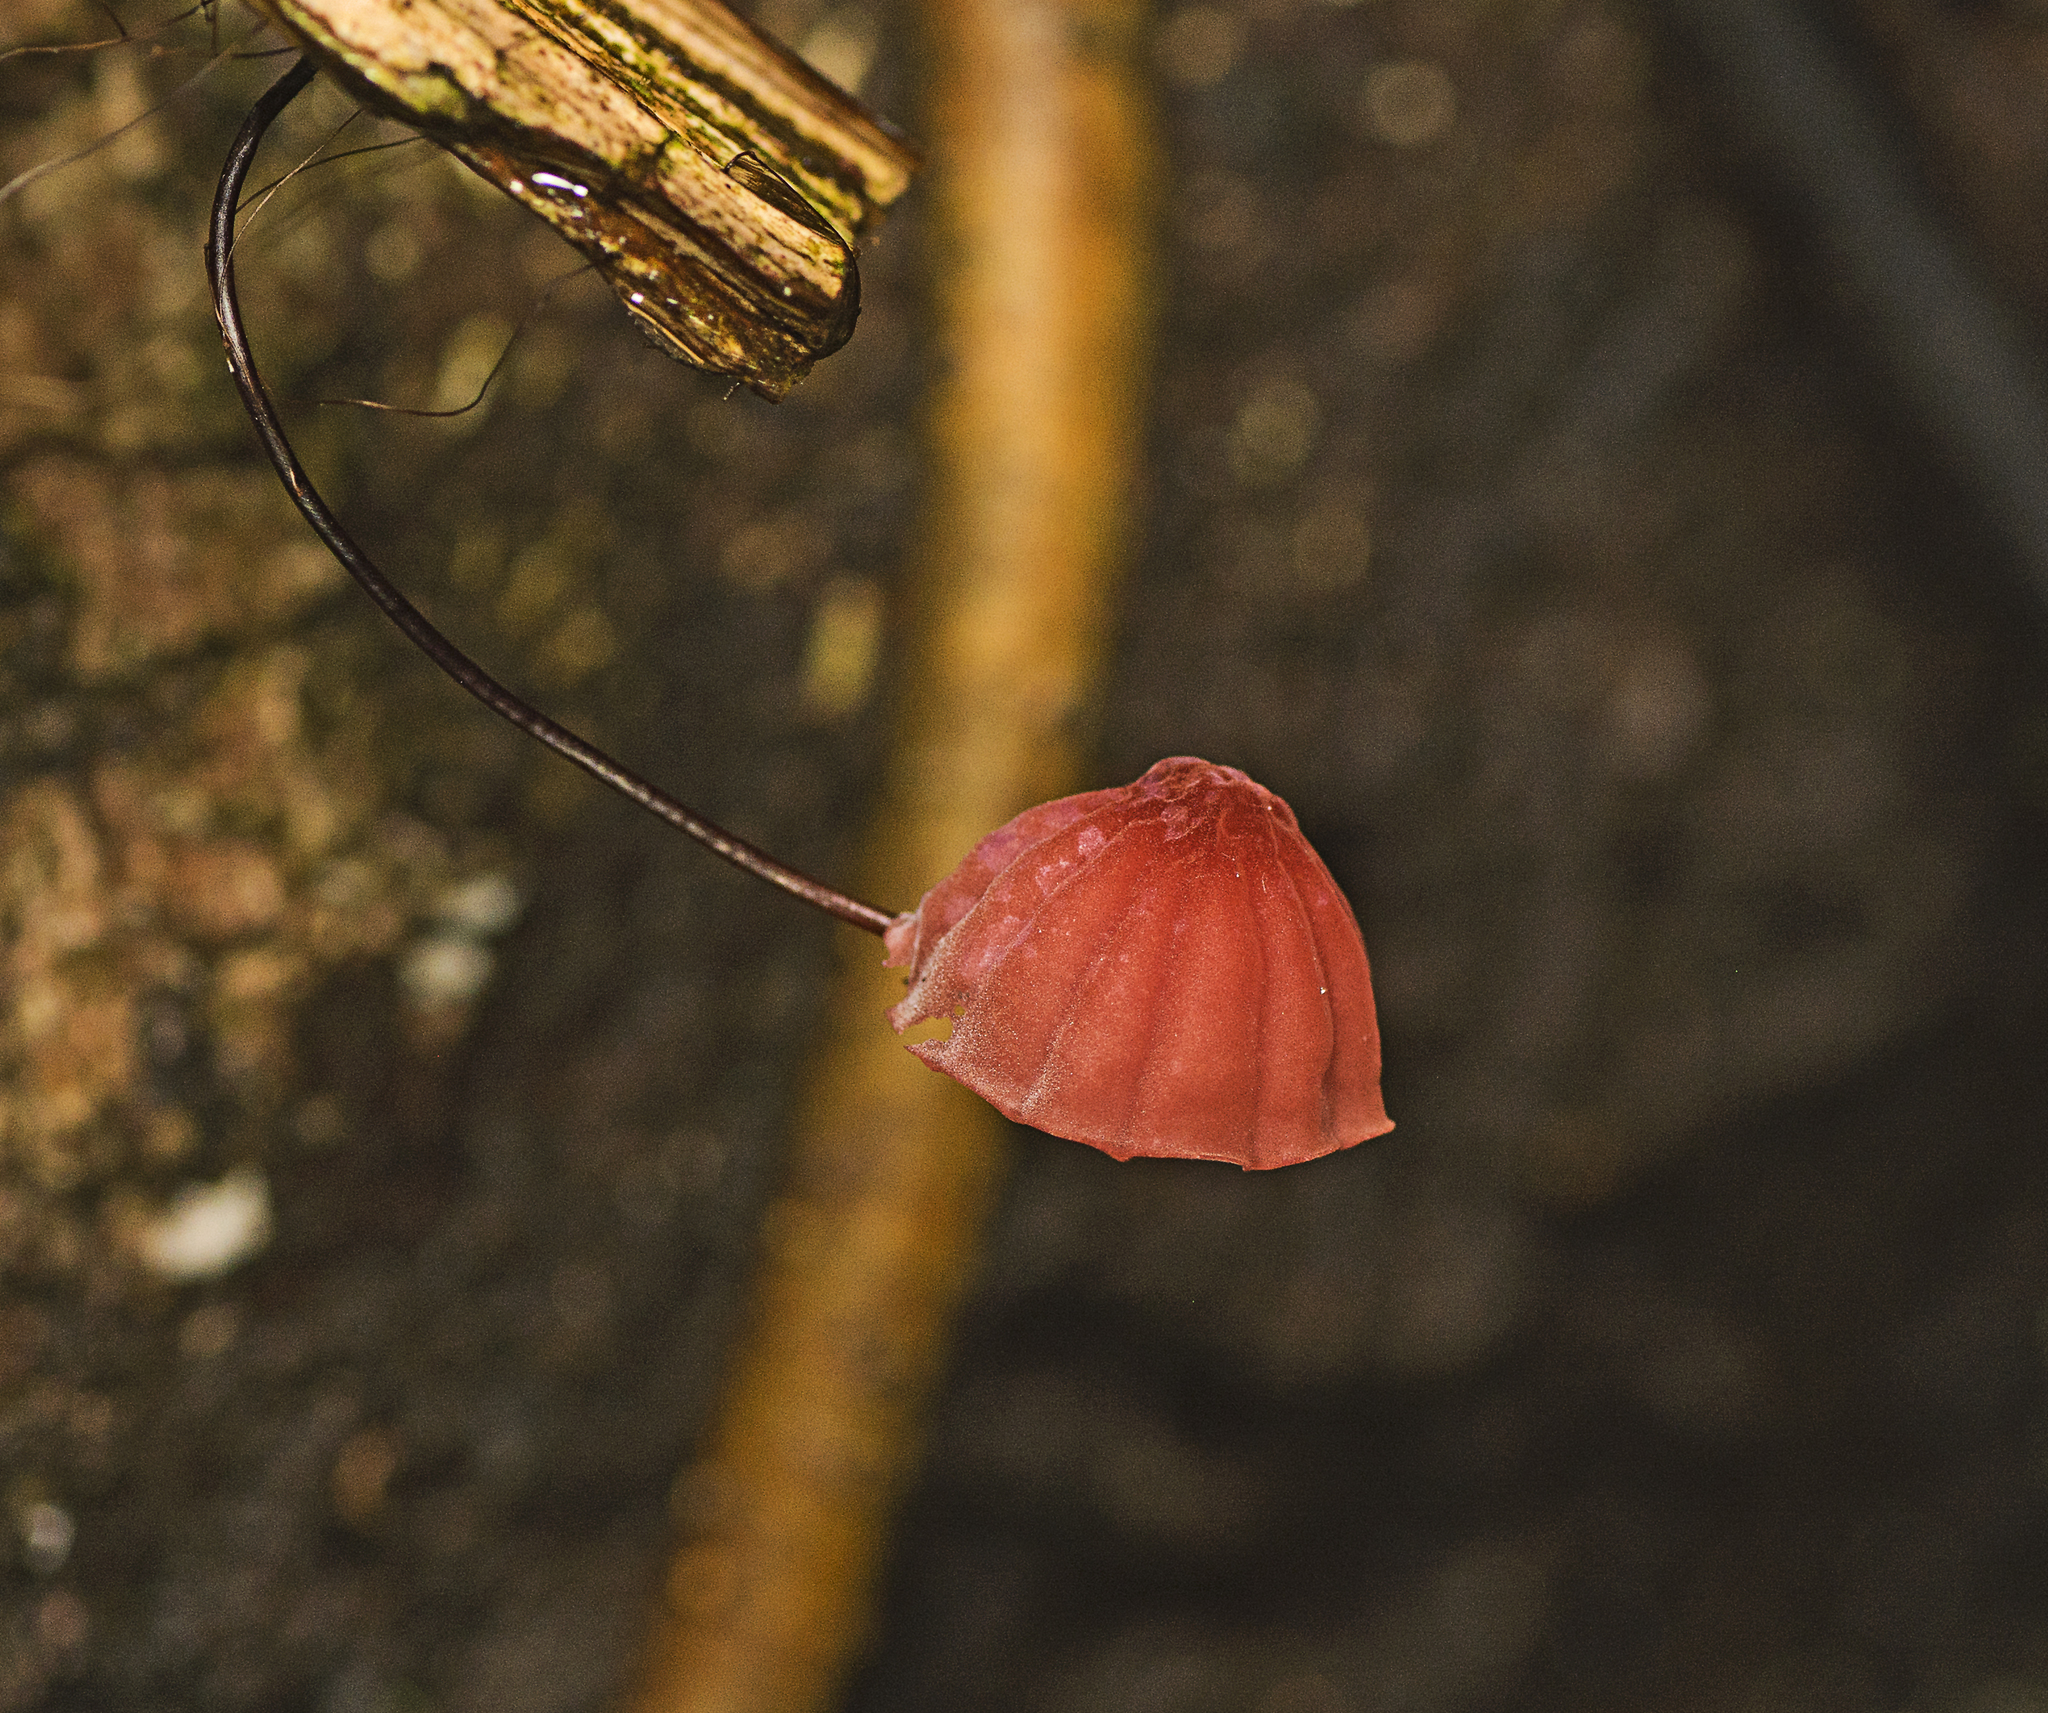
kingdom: Fungi
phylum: Basidiomycota
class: Agaricomycetes
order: Agaricales
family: Marasmiaceae
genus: Marasmius
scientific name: Marasmius haematocephalus
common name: Purple pinwheel
